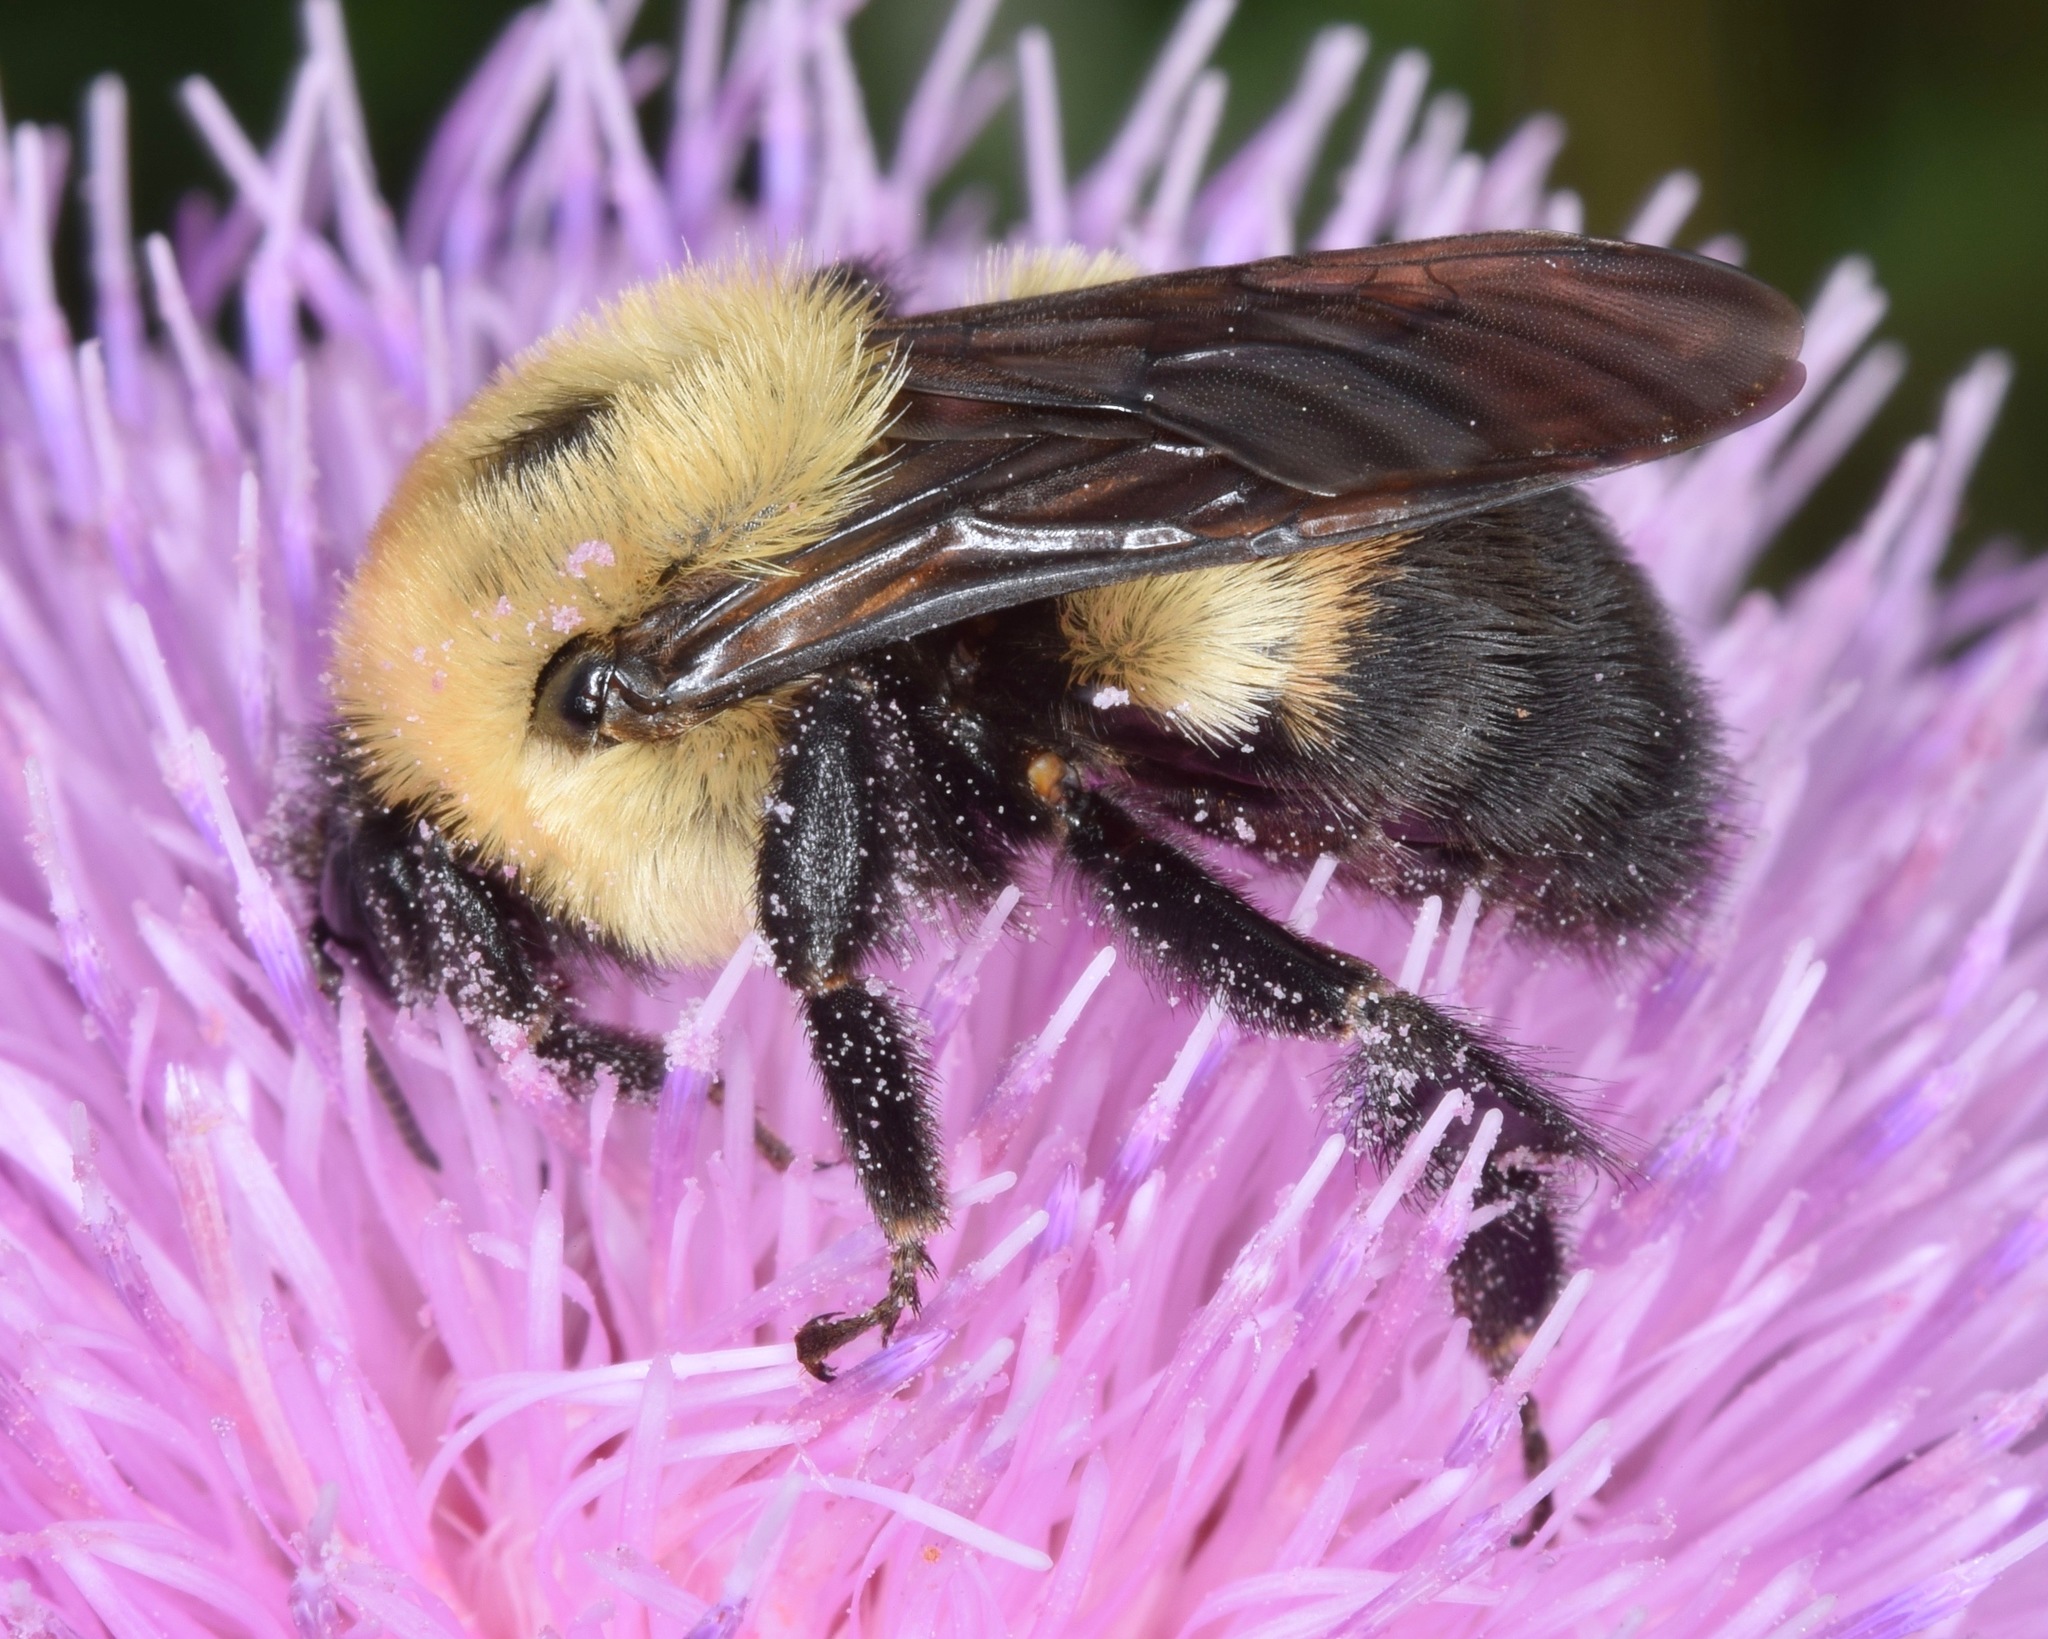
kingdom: Animalia
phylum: Arthropoda
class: Insecta
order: Hymenoptera
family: Apidae
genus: Bombus
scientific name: Bombus griseocollis
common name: Brown-belted bumble bee
